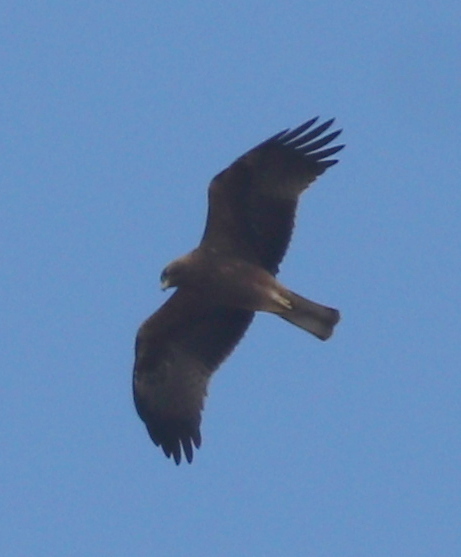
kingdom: Animalia
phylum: Chordata
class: Aves
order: Accipitriformes
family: Accipitridae
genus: Hieraaetus
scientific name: Hieraaetus pennatus
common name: Booted eagle
